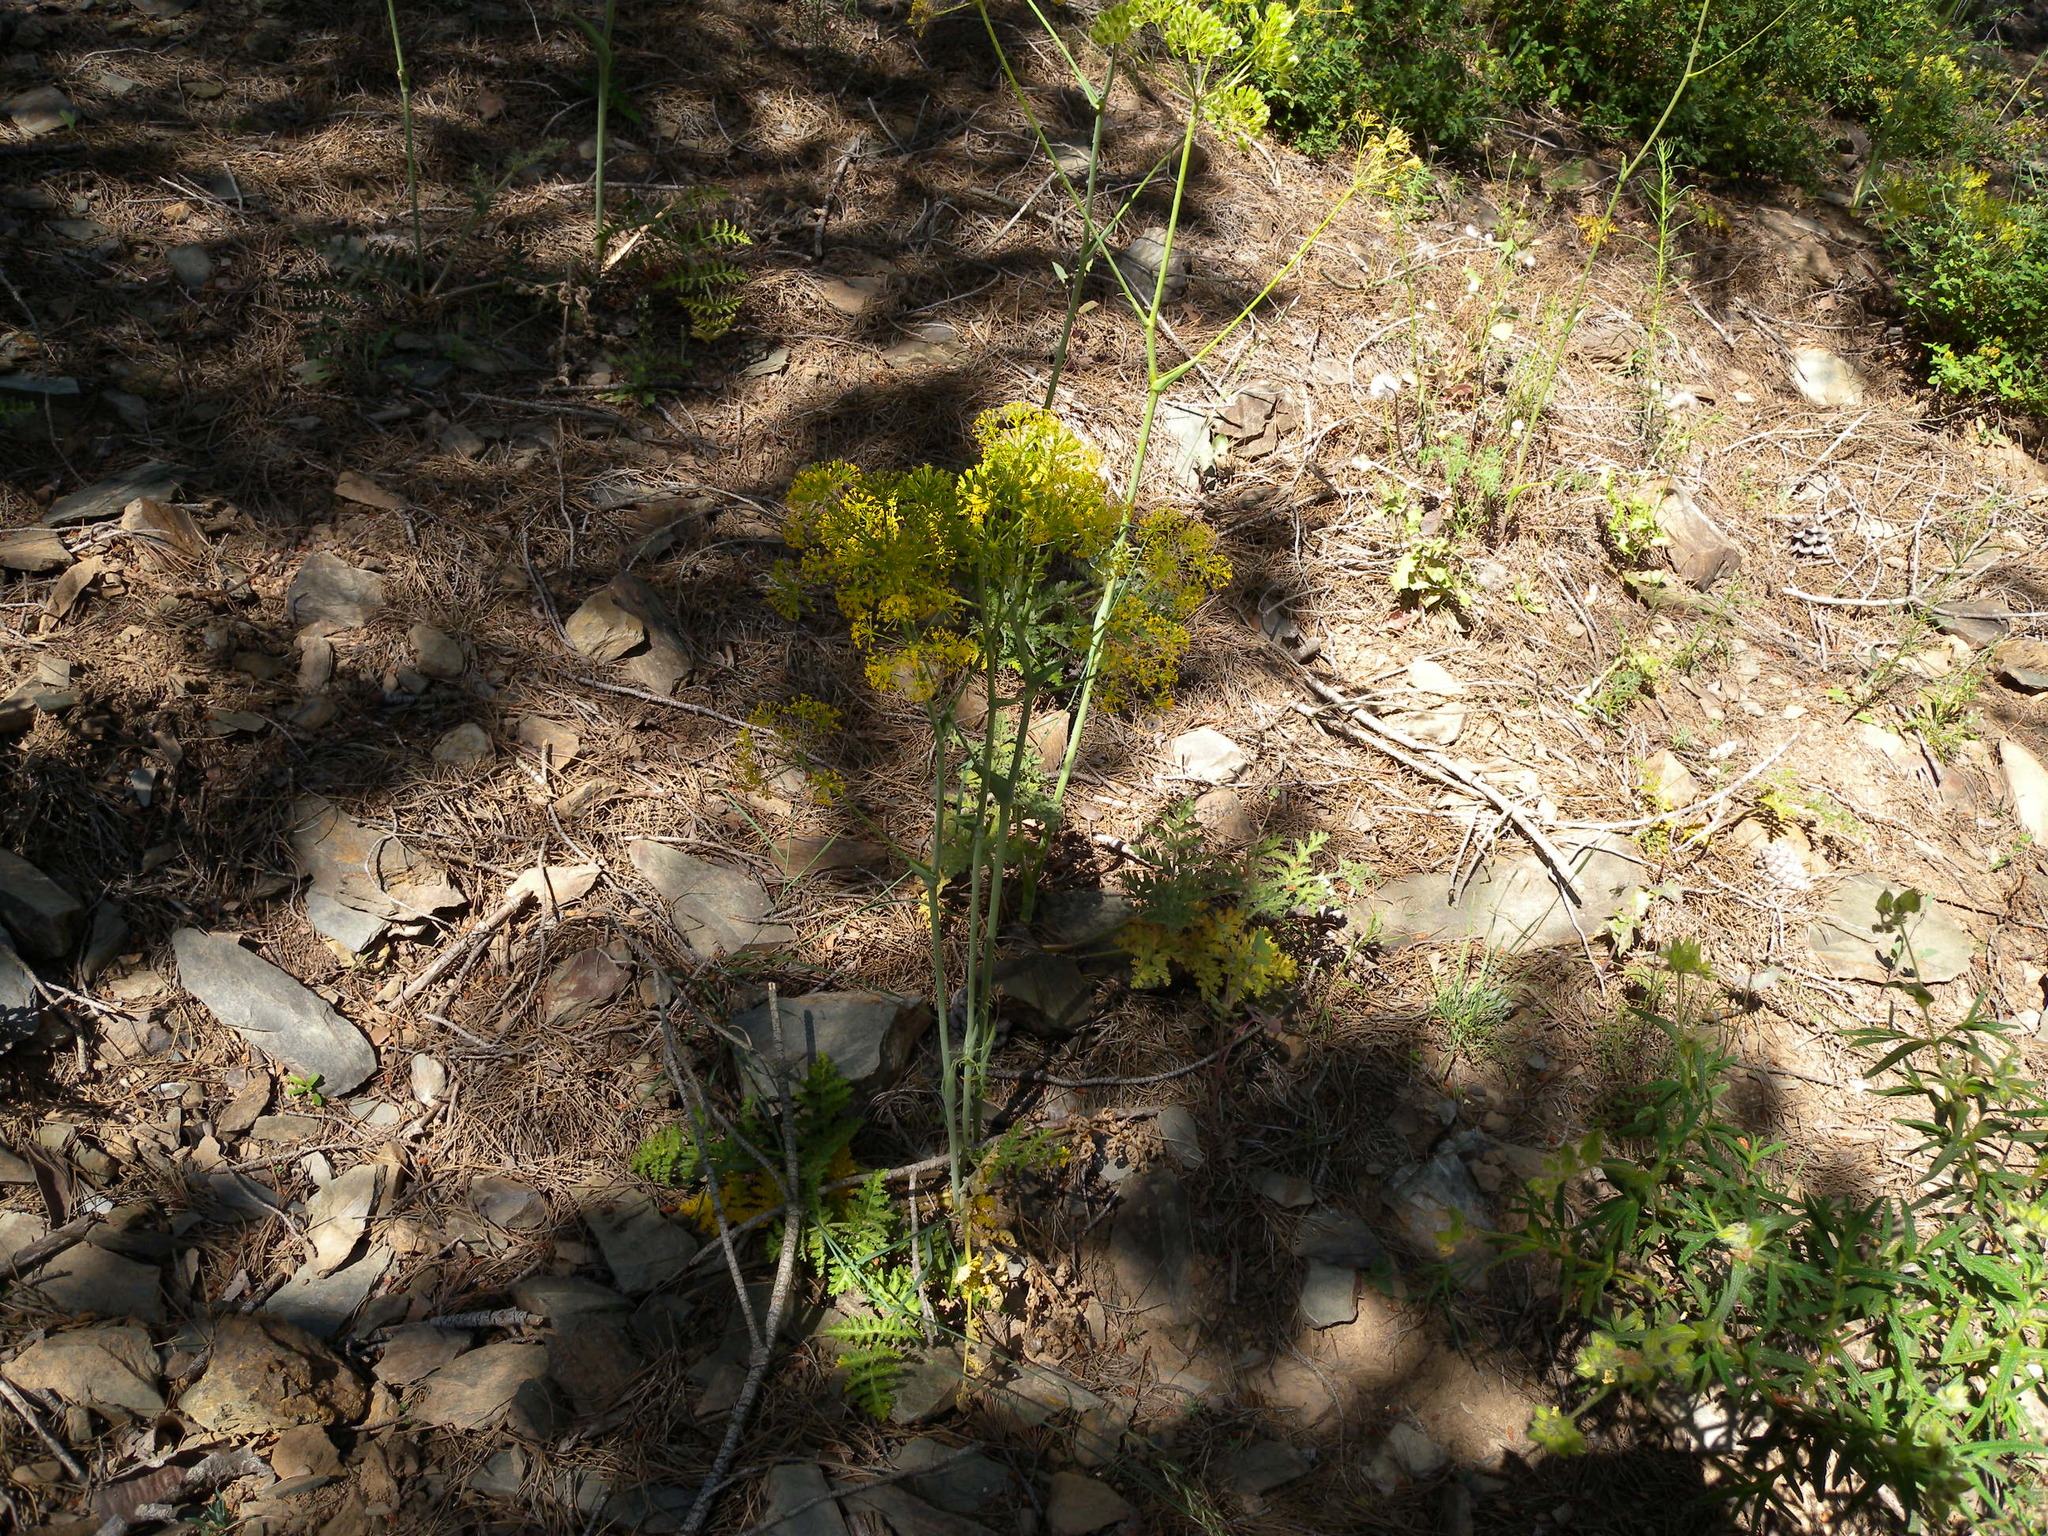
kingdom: Plantae
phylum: Tracheophyta
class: Magnoliopsida
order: Apiales
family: Apiaceae
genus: Thapsia
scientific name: Thapsia villosa
